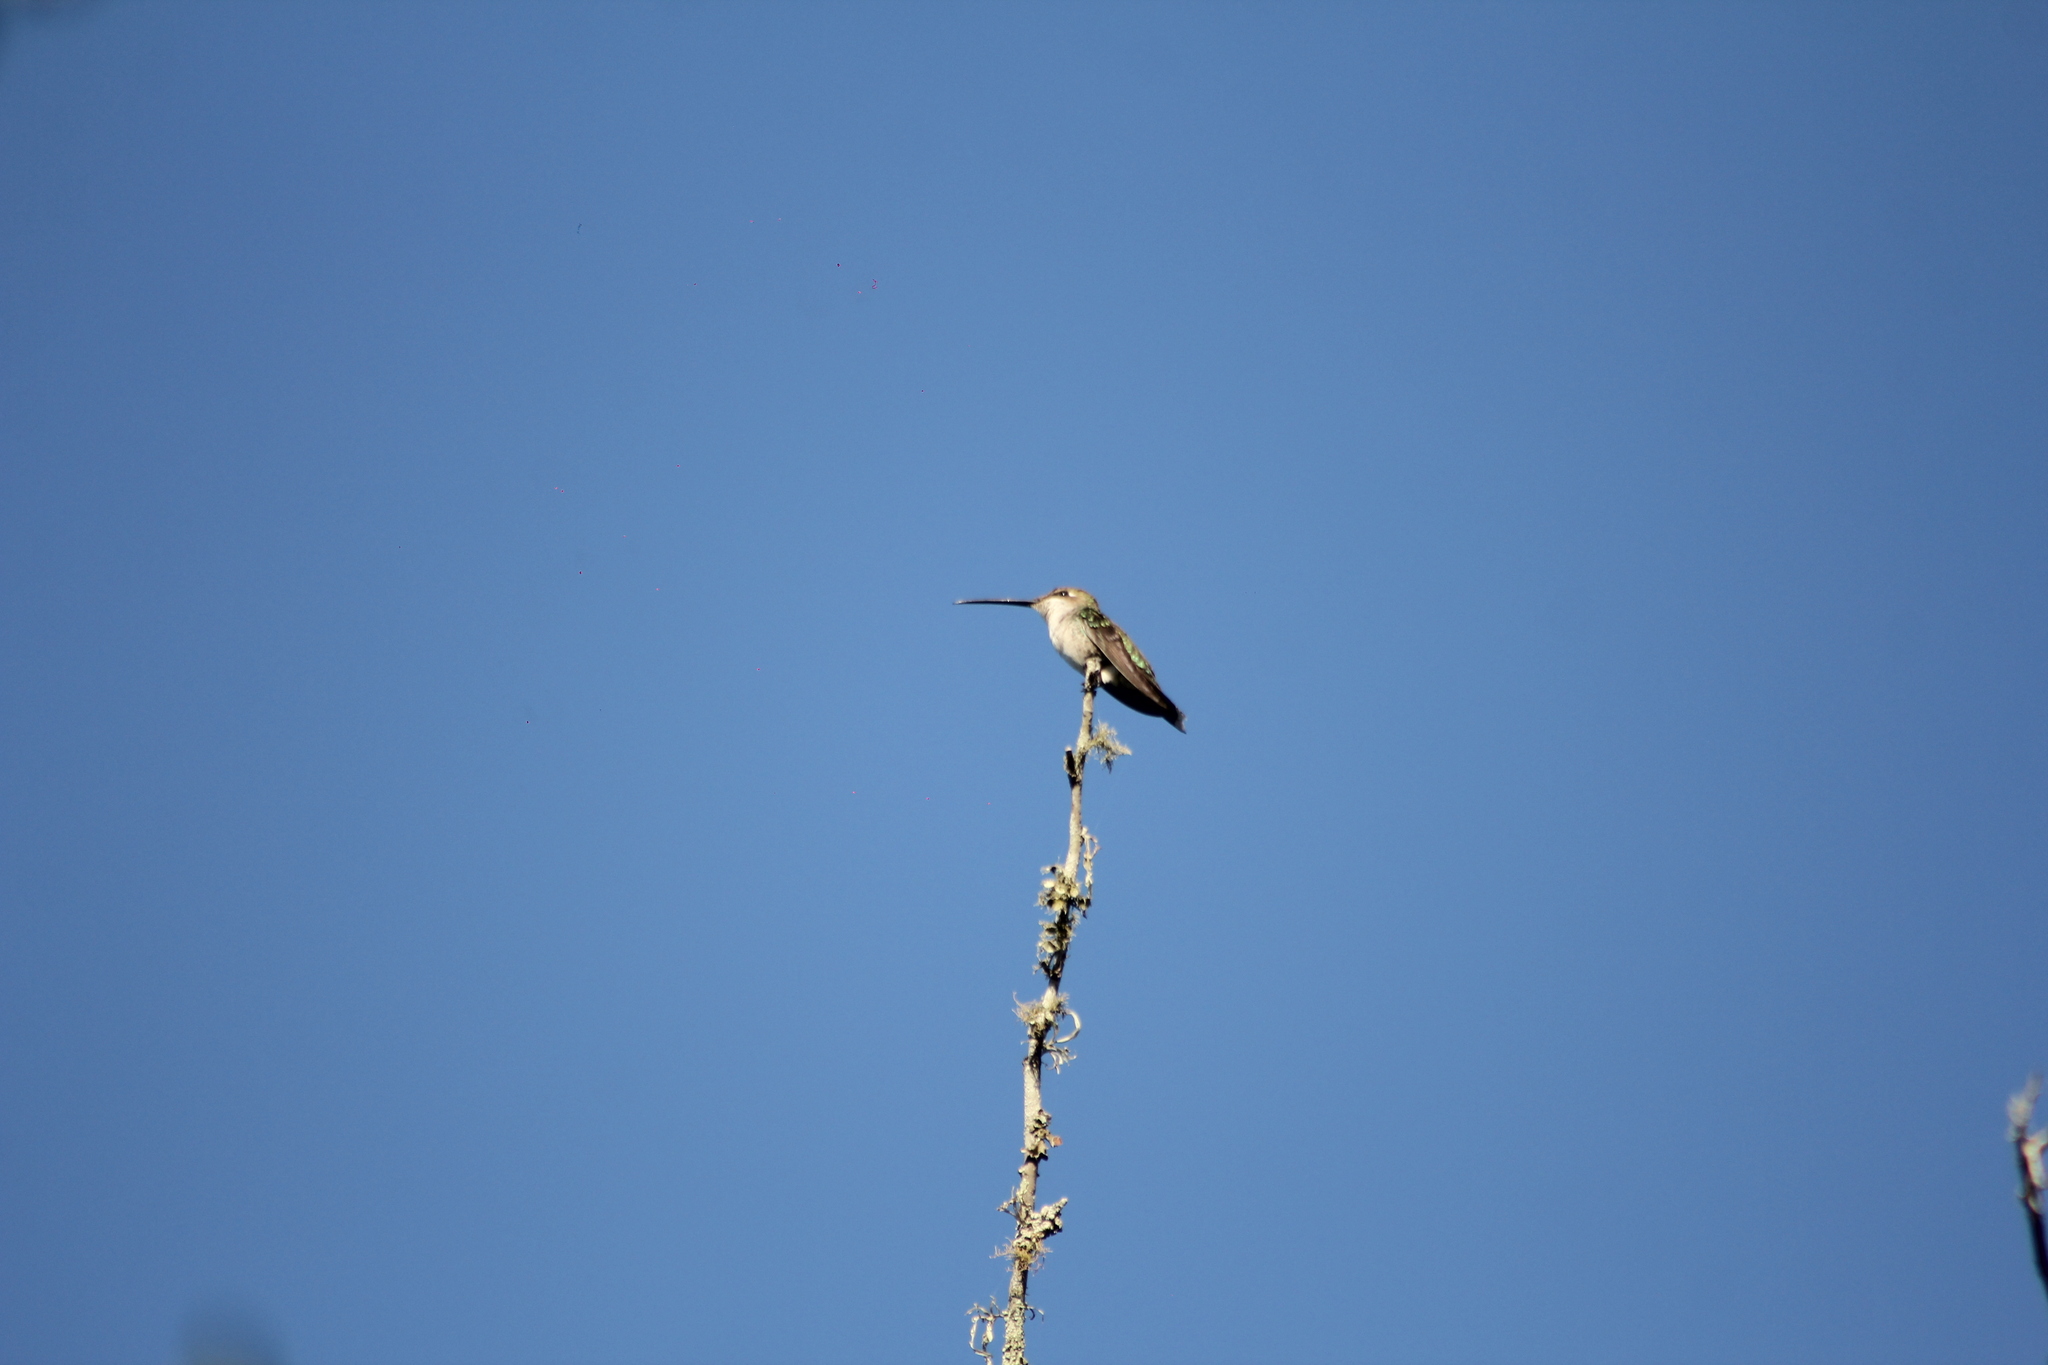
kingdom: Animalia
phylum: Chordata
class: Aves
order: Apodiformes
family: Trochilidae
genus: Heliomaster
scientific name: Heliomaster furcifer
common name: Blue-tufted starthroat
